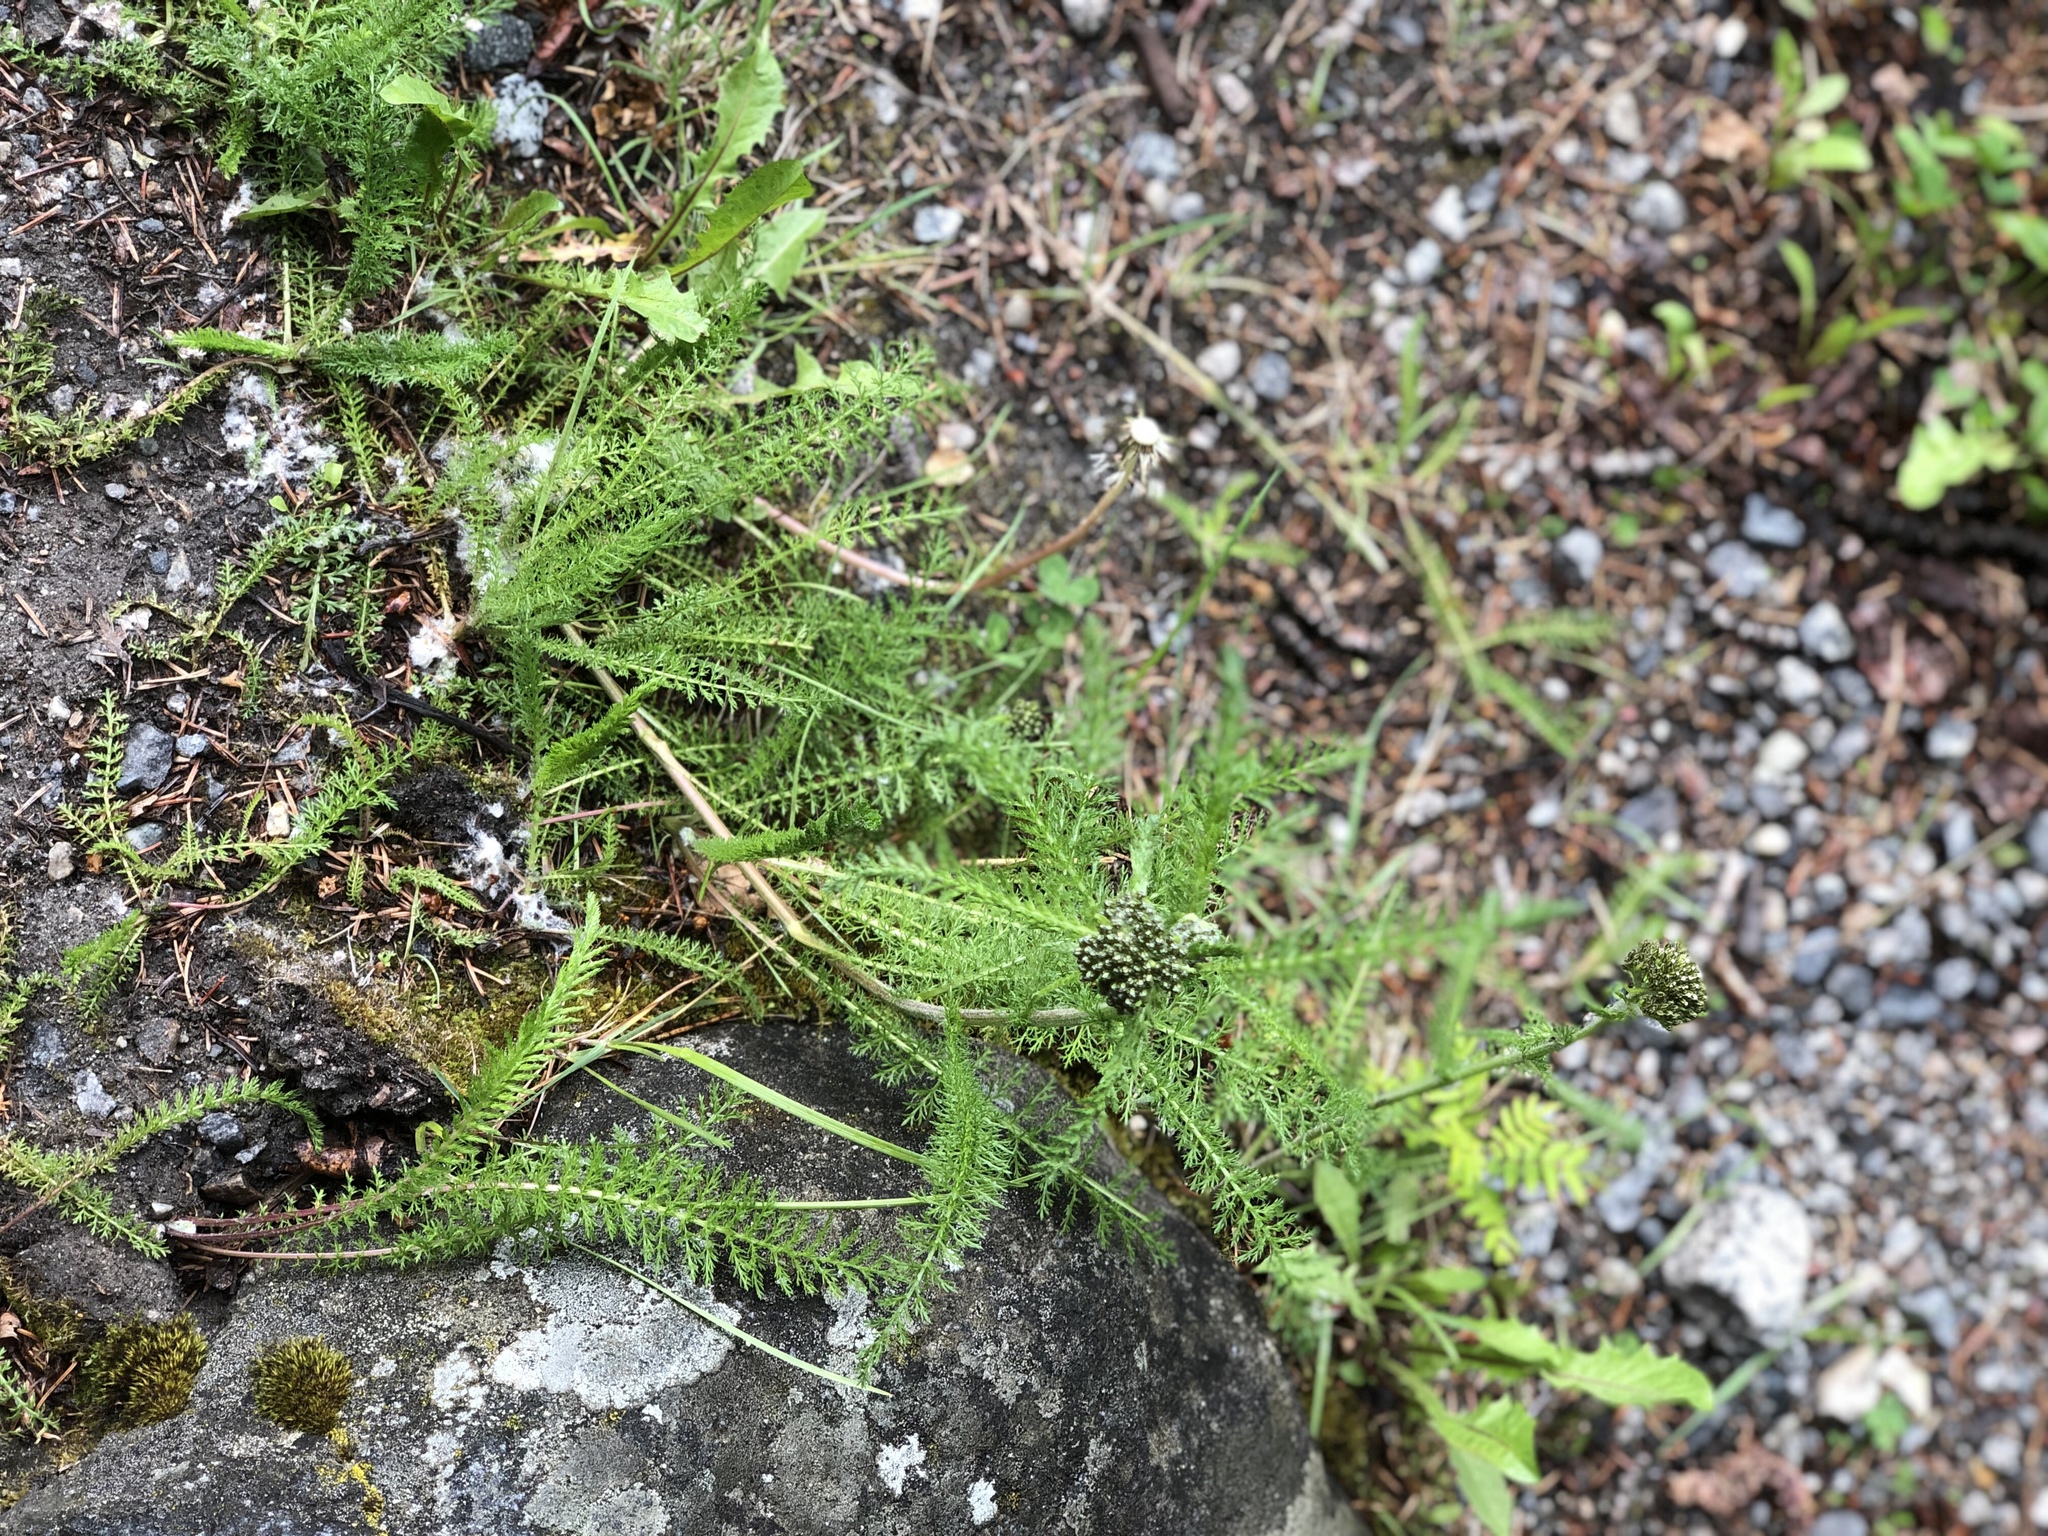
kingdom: Plantae
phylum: Tracheophyta
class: Magnoliopsida
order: Asterales
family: Asteraceae
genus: Achillea
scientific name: Achillea millefolium
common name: Yarrow
